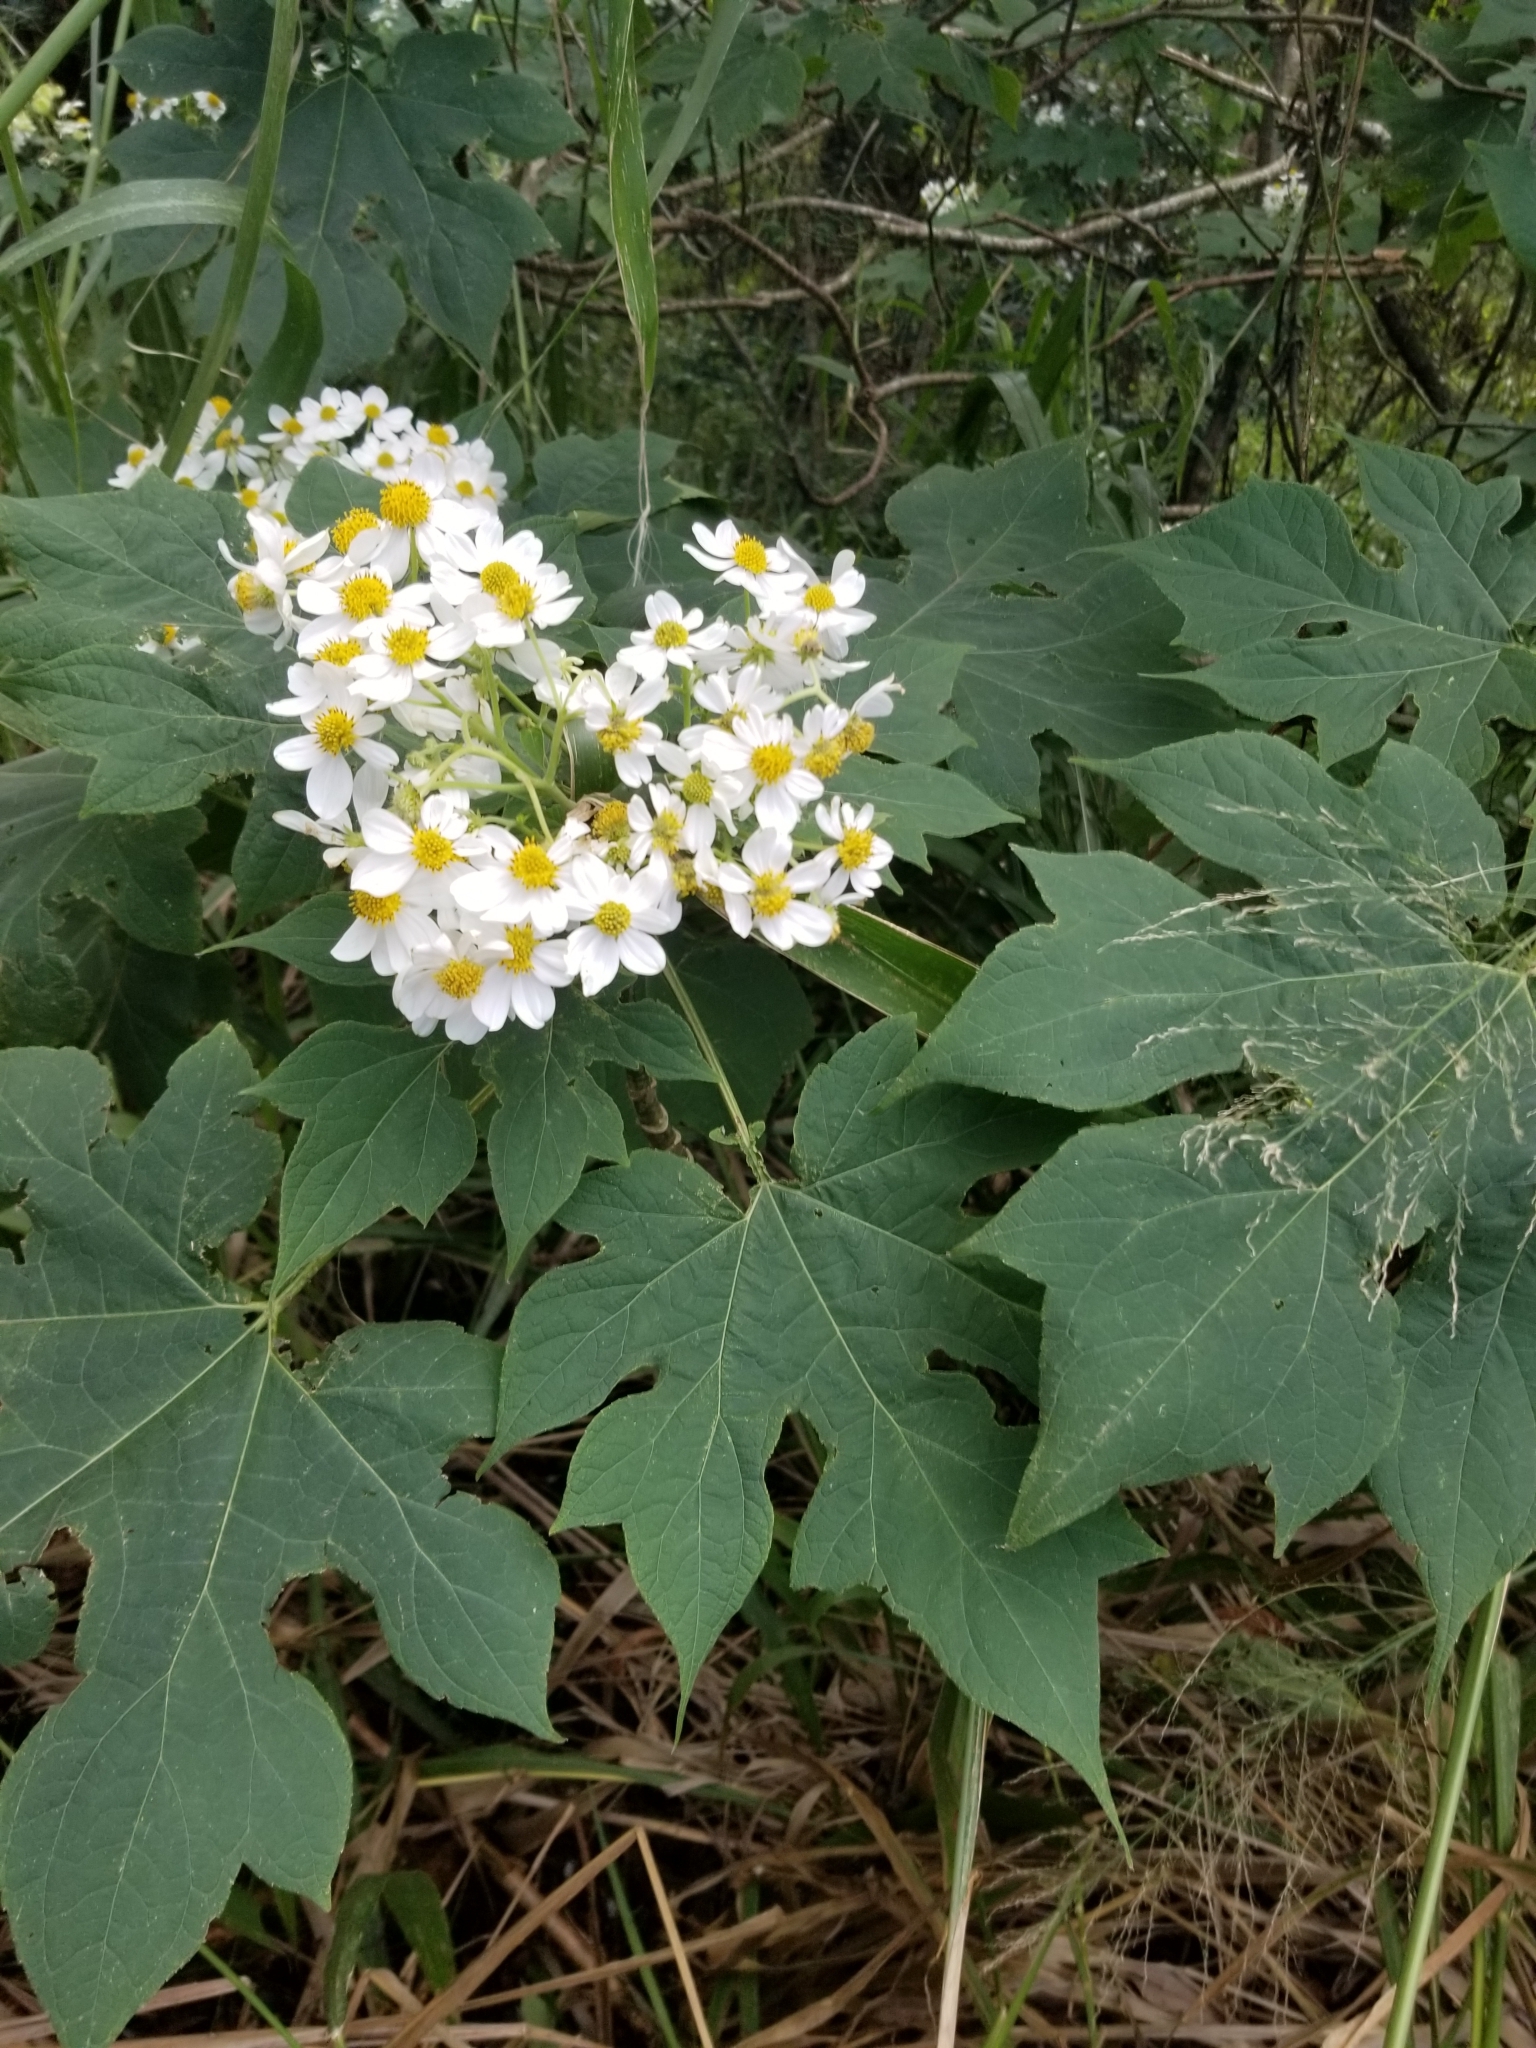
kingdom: Plantae
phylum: Tracheophyta
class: Magnoliopsida
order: Asterales
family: Asteraceae
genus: Montanoa
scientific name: Montanoa hibiscifolia
